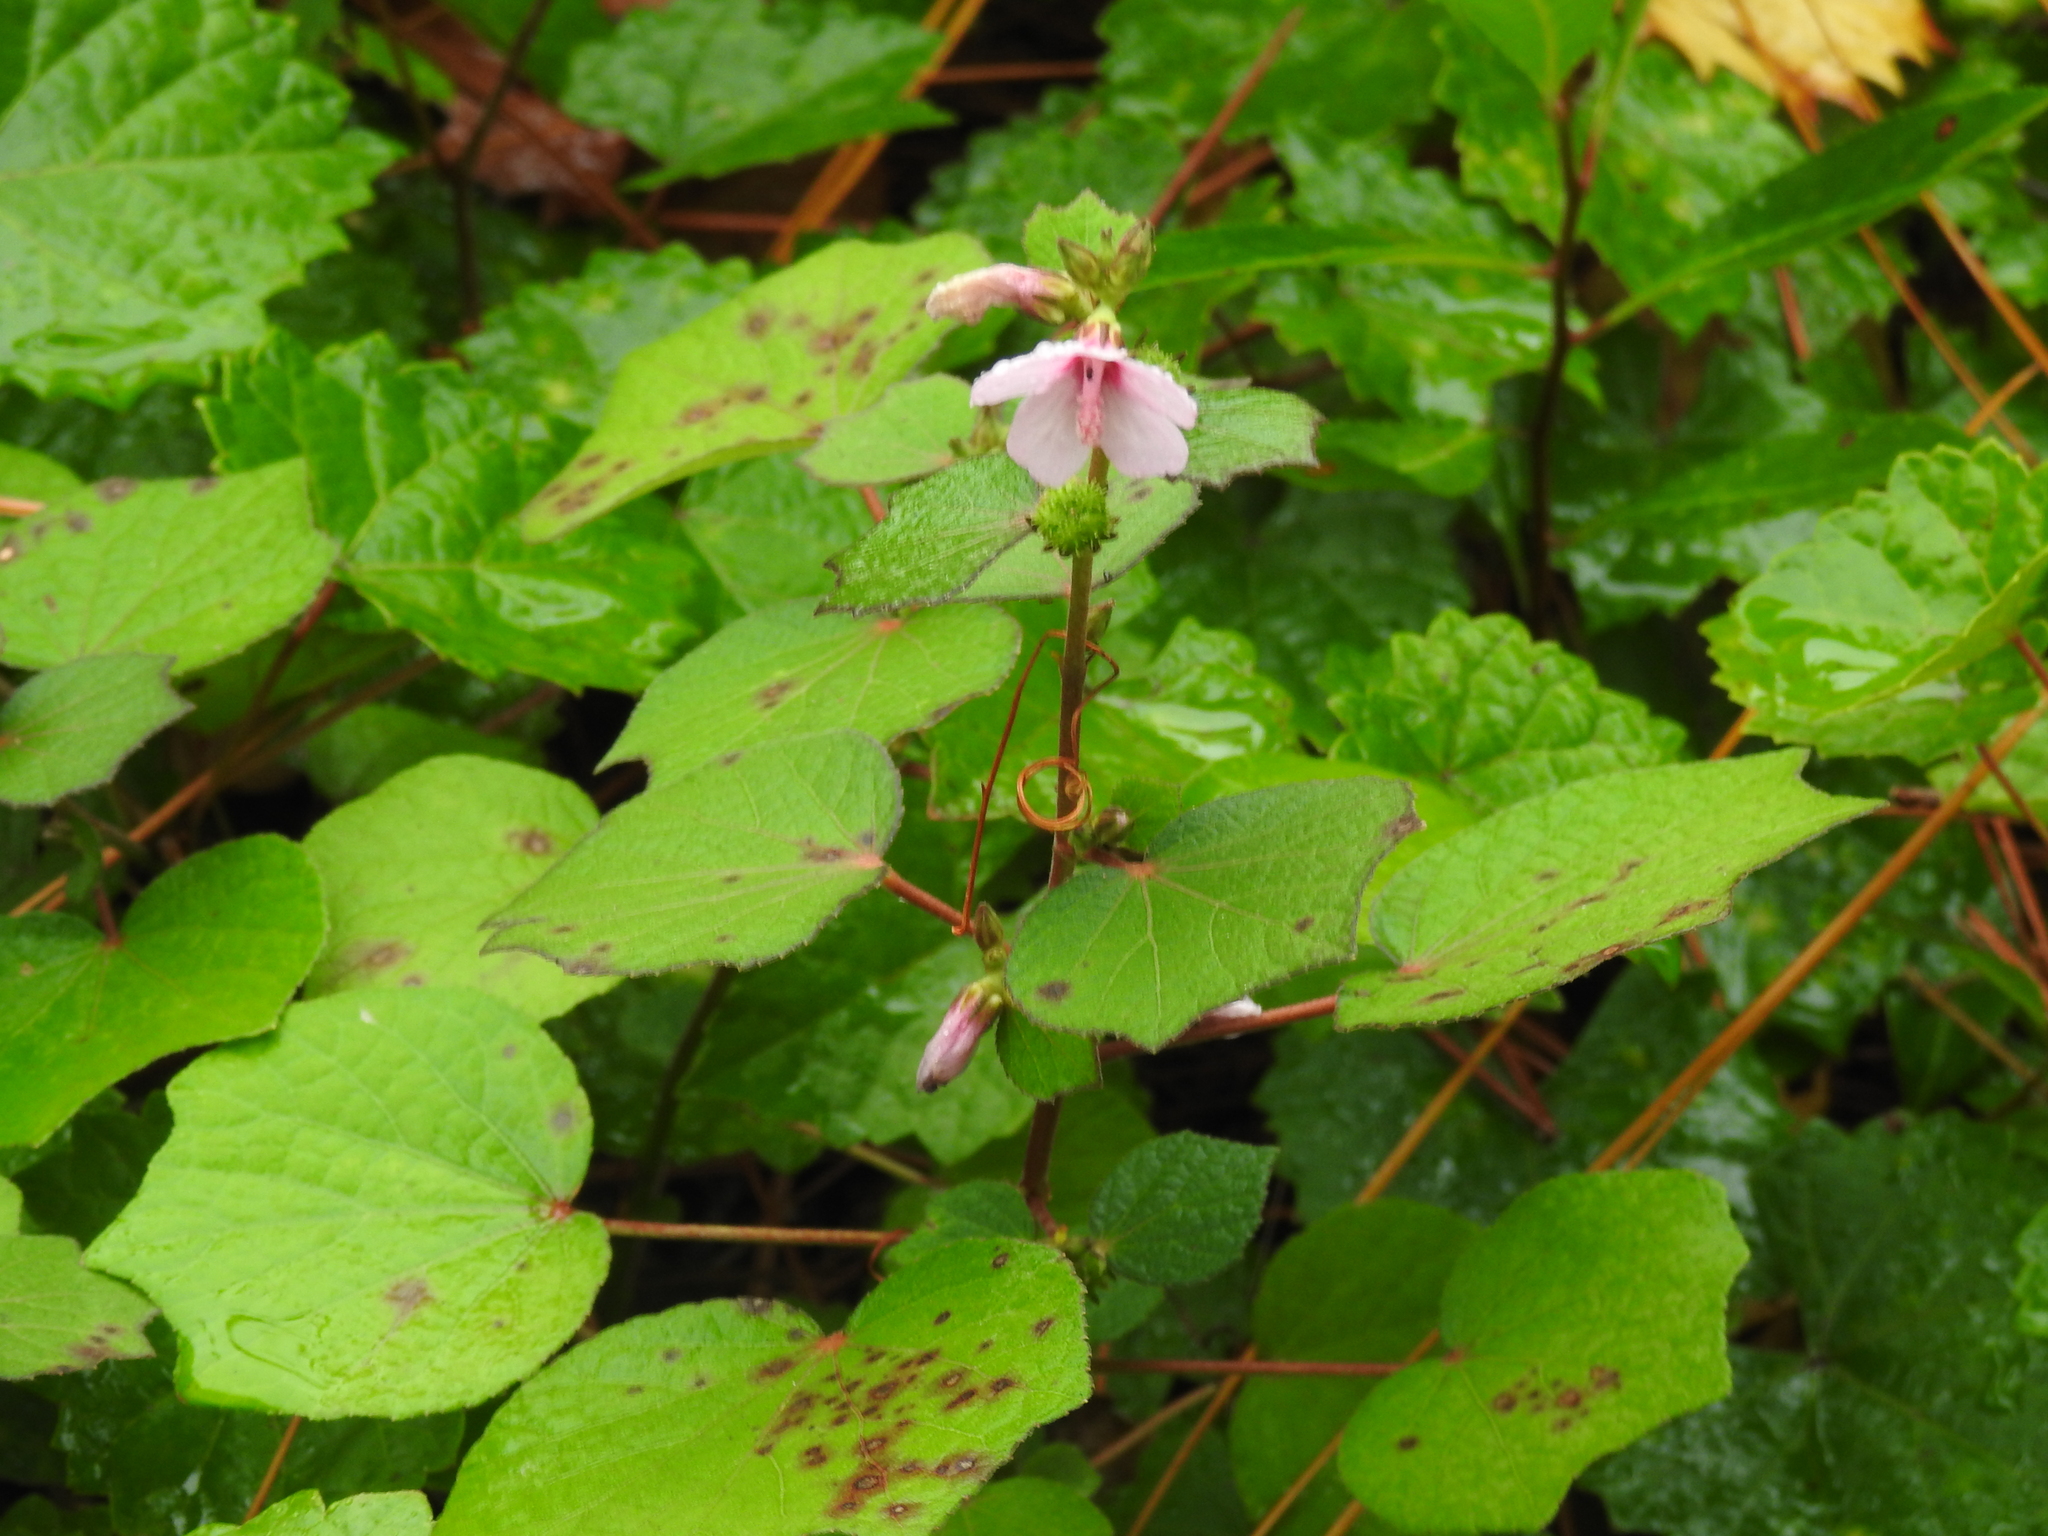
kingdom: Plantae
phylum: Tracheophyta
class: Magnoliopsida
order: Malvales
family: Malvaceae
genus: Urena
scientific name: Urena lobata
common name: Caesarweed
